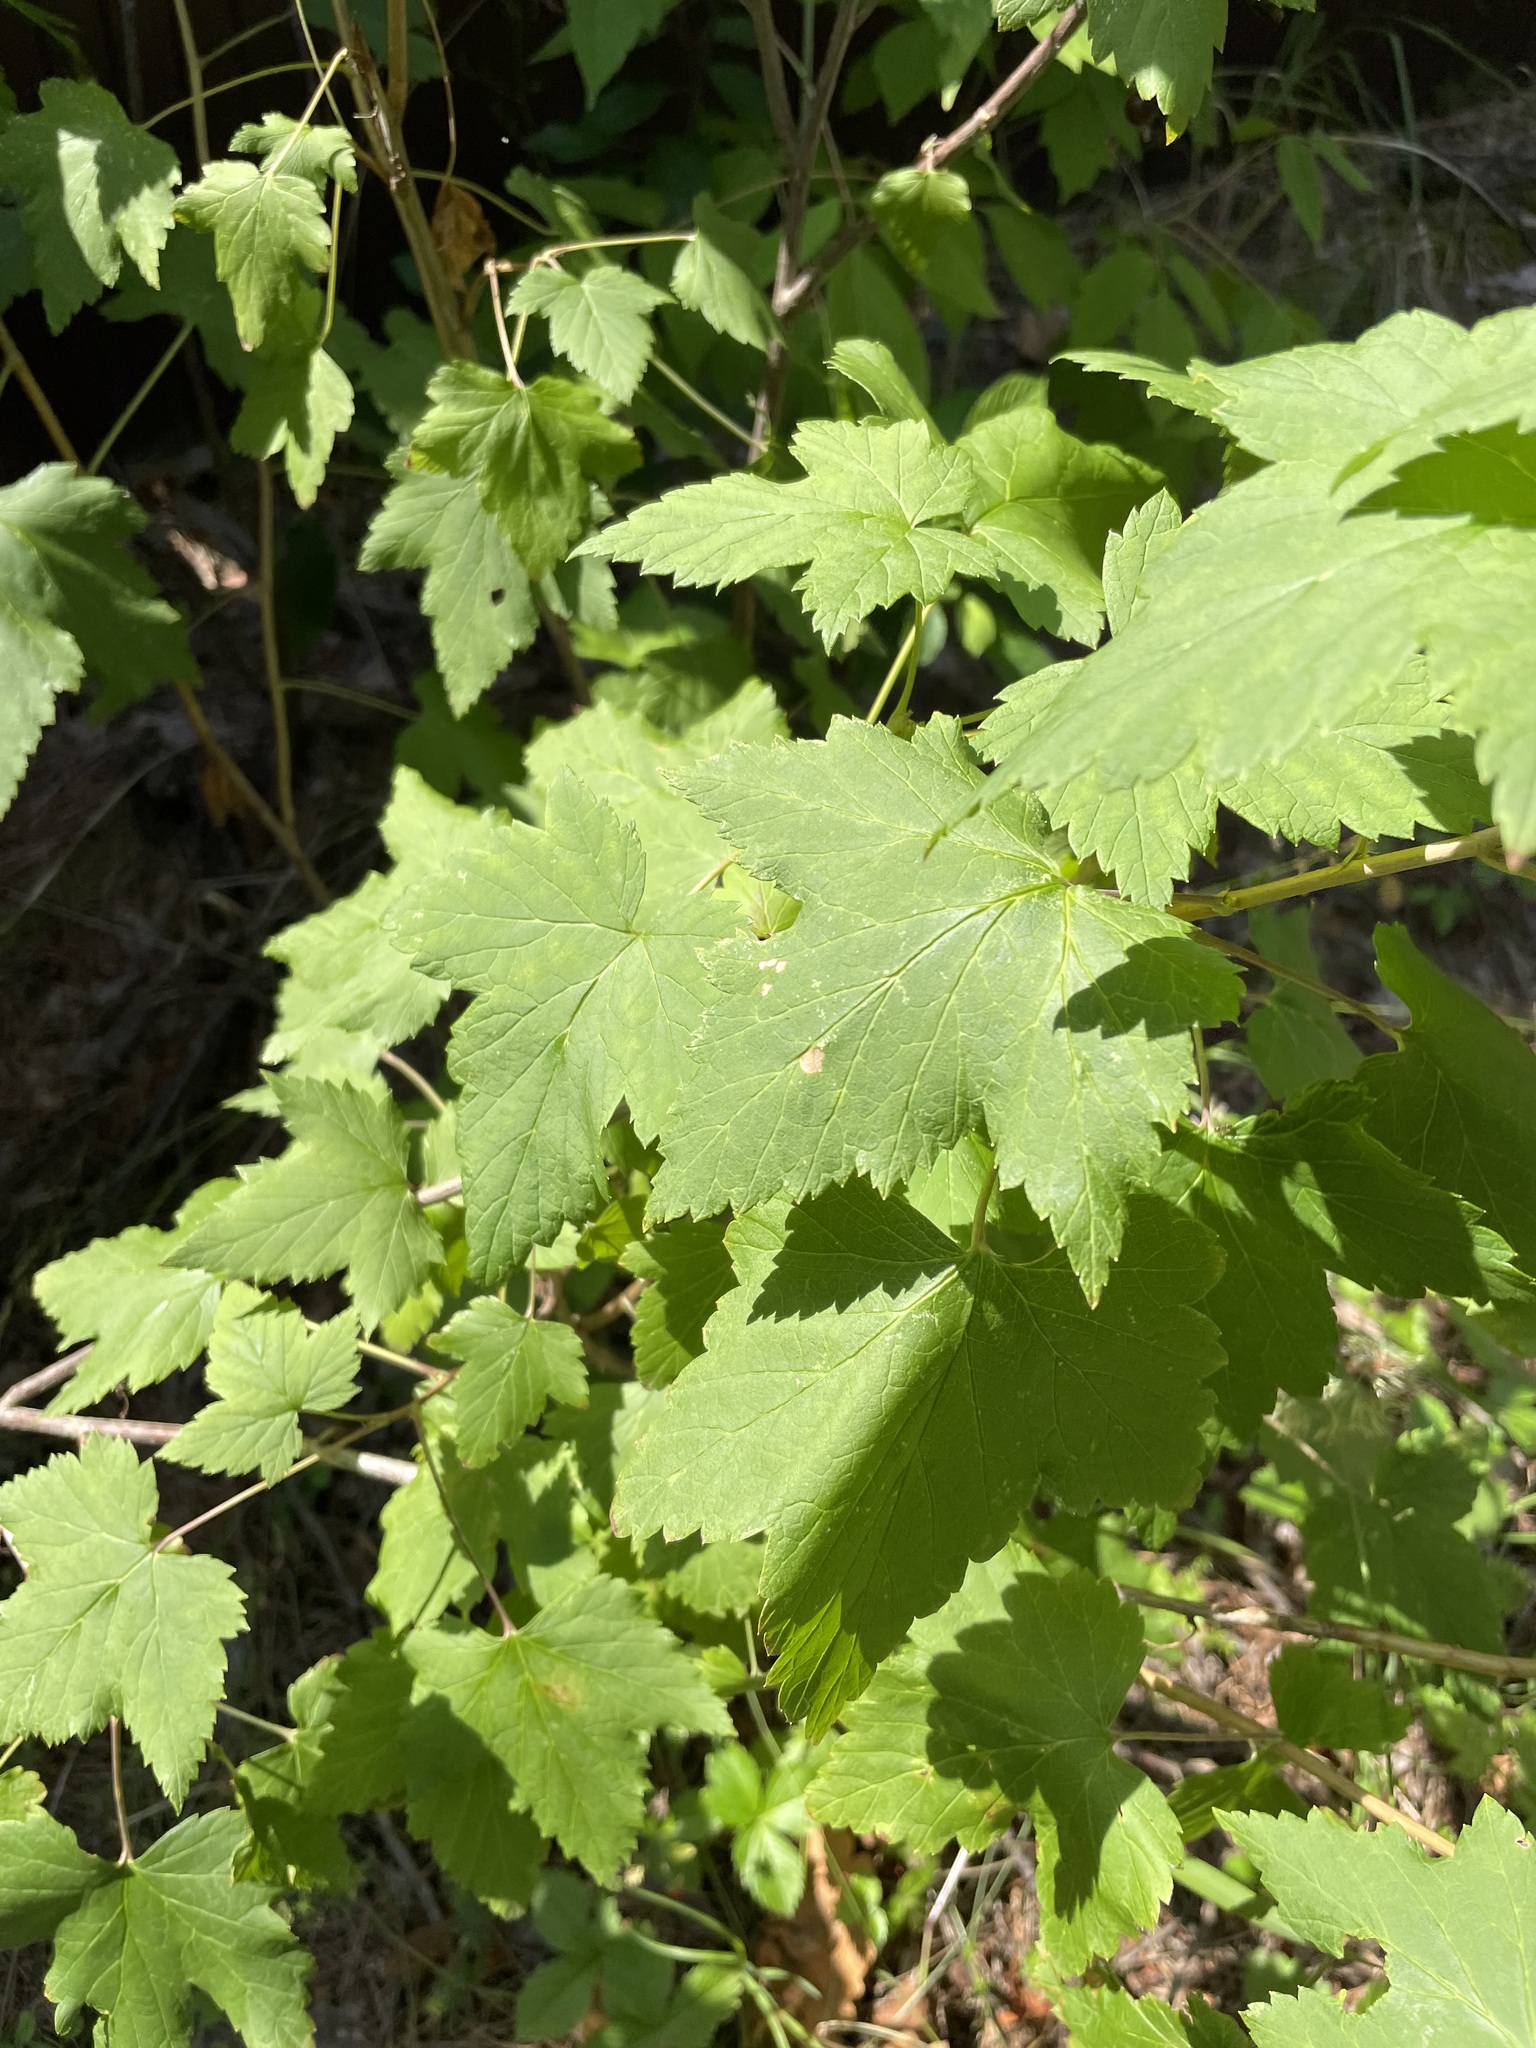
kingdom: Plantae
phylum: Tracheophyta
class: Magnoliopsida
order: Saxifragales
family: Grossulariaceae
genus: Ribes
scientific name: Ribes nigrum
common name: Black currant
